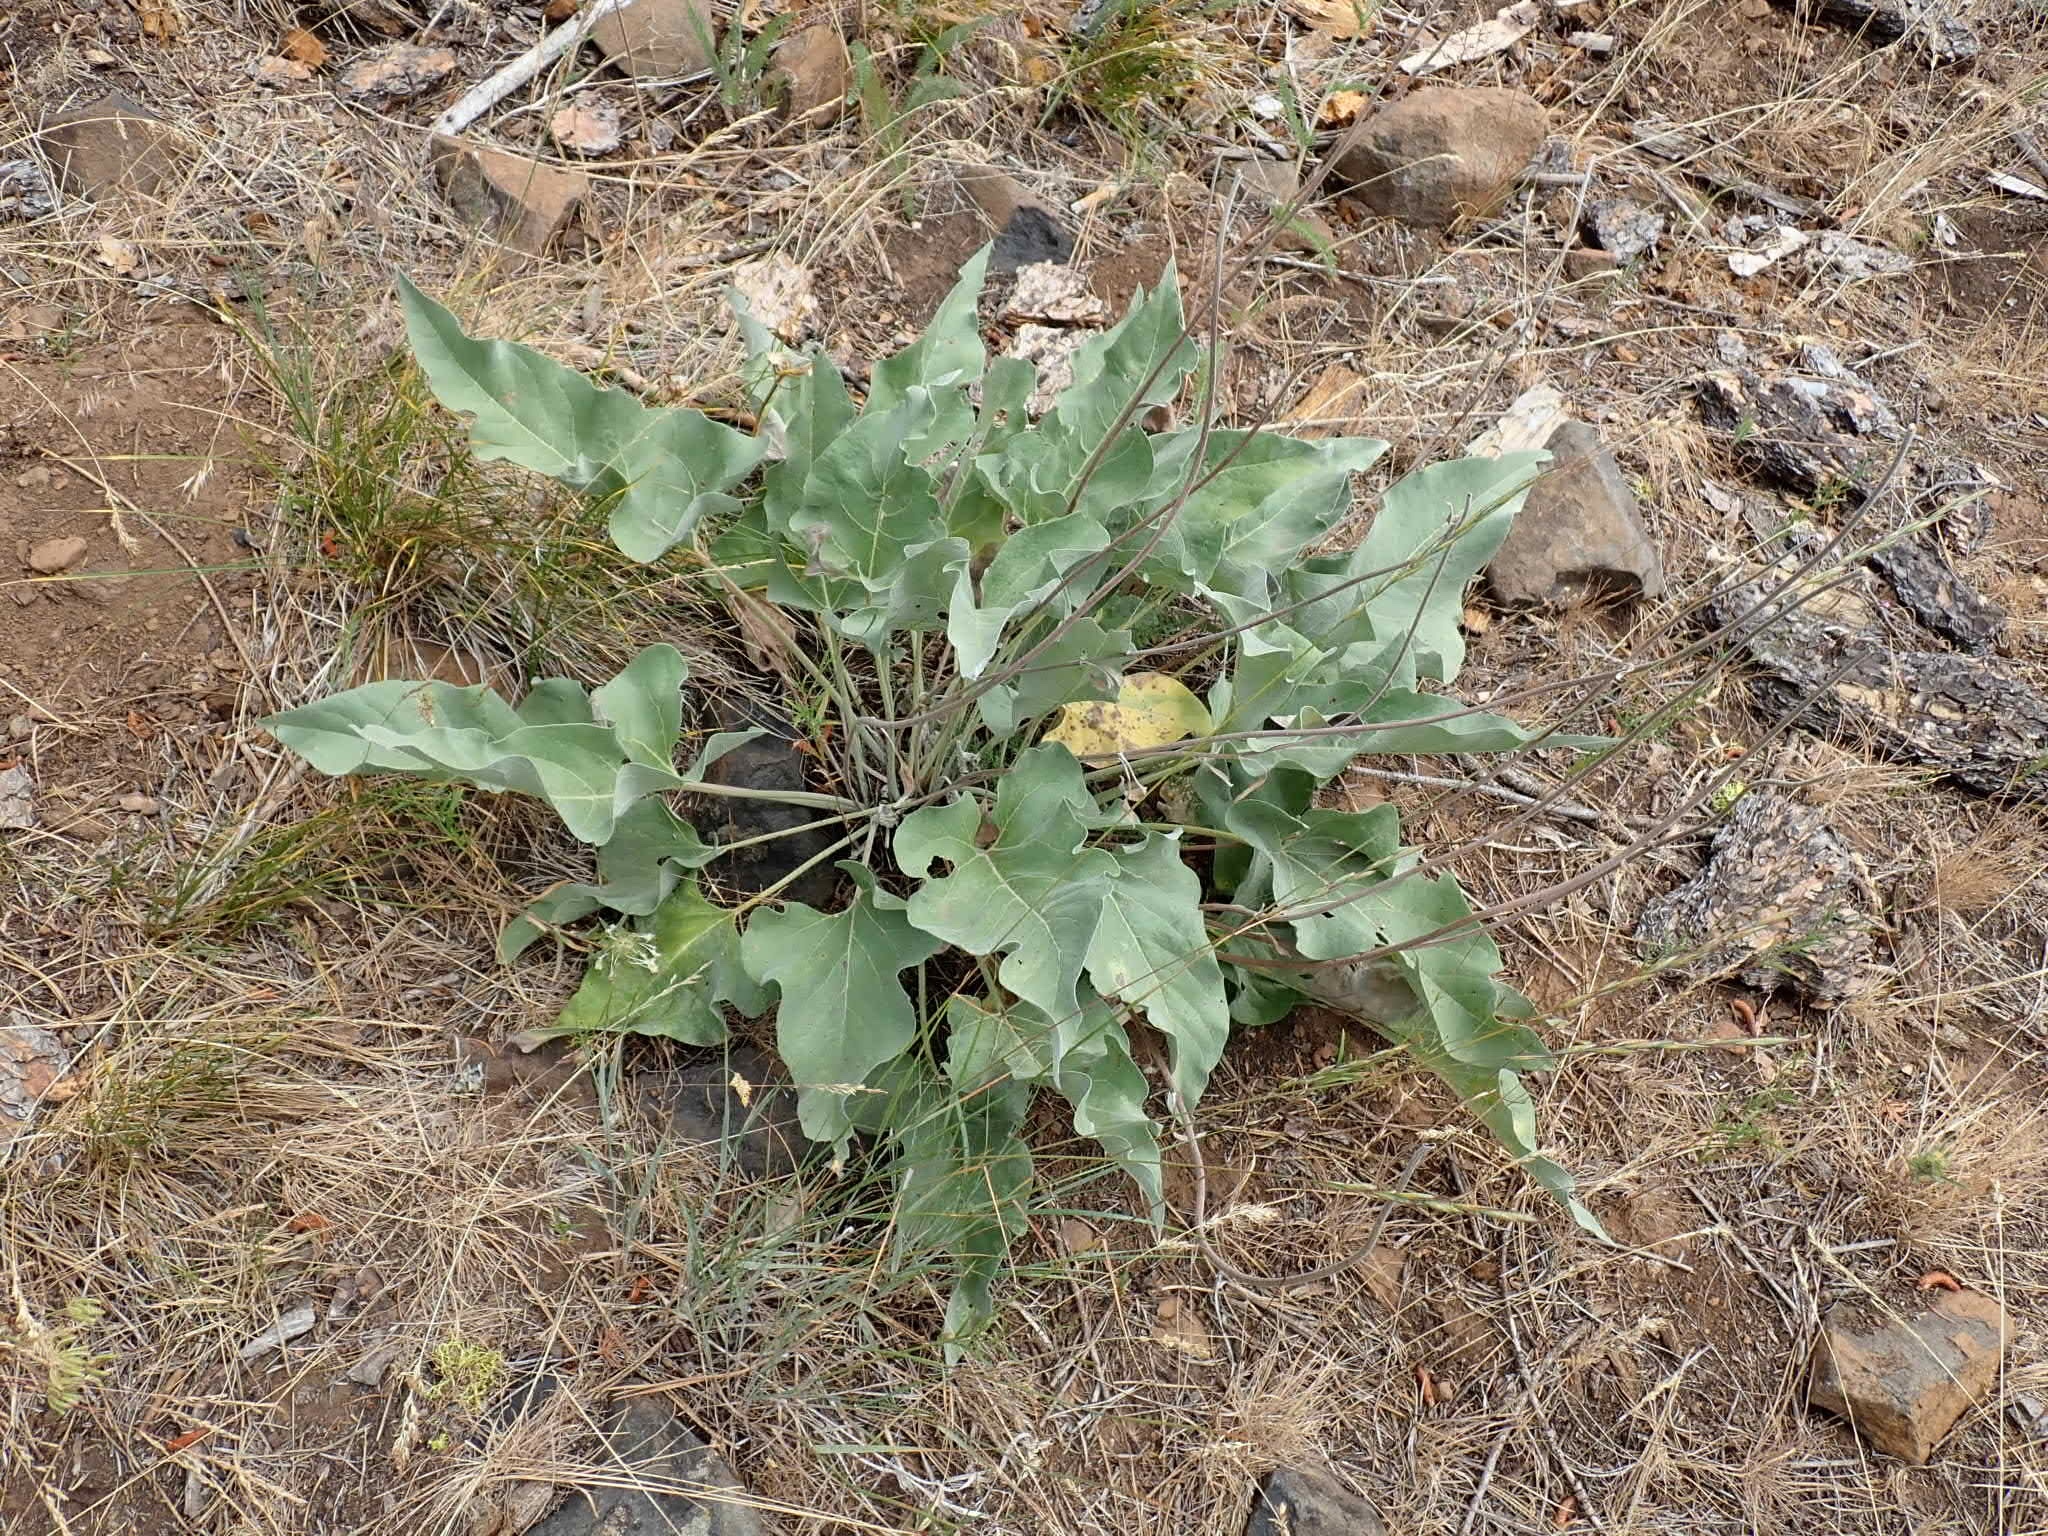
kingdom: Plantae
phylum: Tracheophyta
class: Magnoliopsida
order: Asterales
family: Asteraceae
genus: Wyethia
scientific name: Wyethia sagittata
